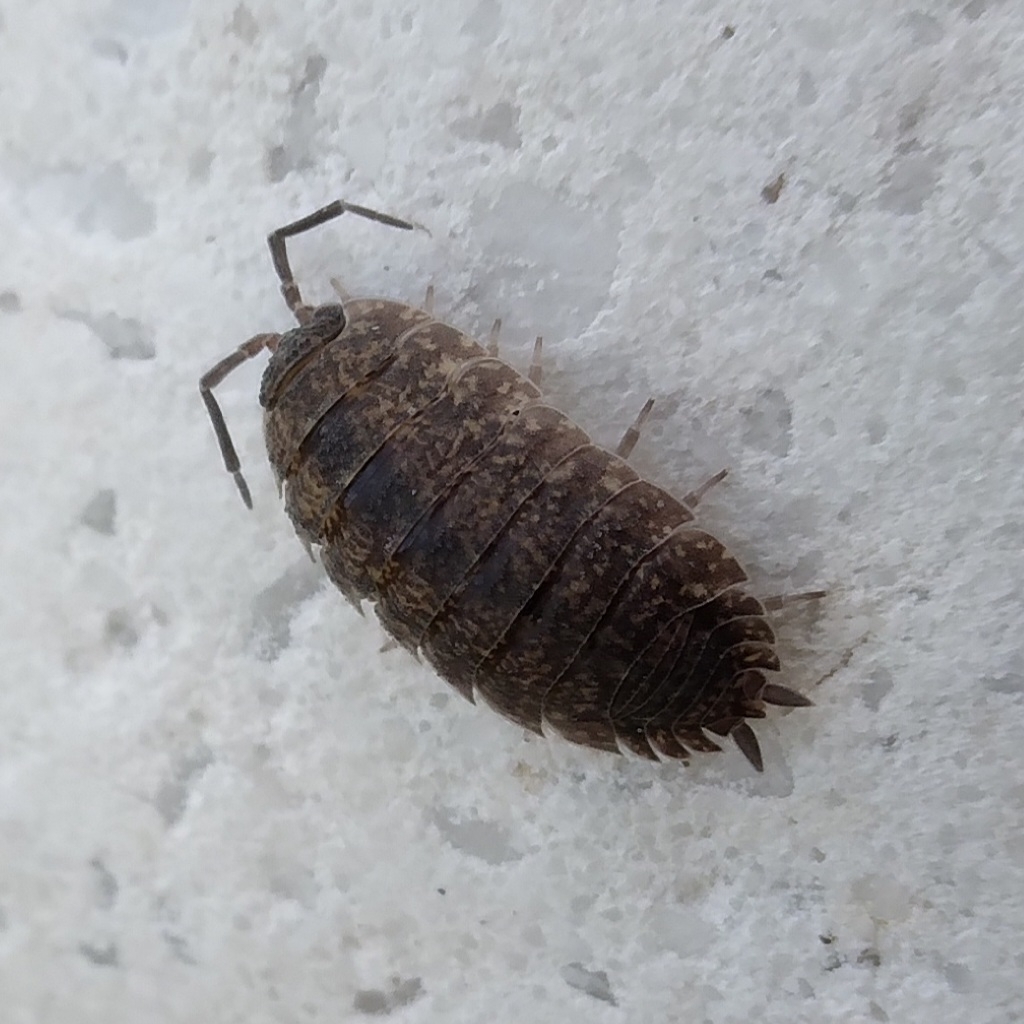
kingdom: Animalia
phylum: Arthropoda
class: Malacostraca
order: Isopoda
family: Porcellionidae
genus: Porcellio
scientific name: Porcellio scaber
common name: Common rough woodlouse
